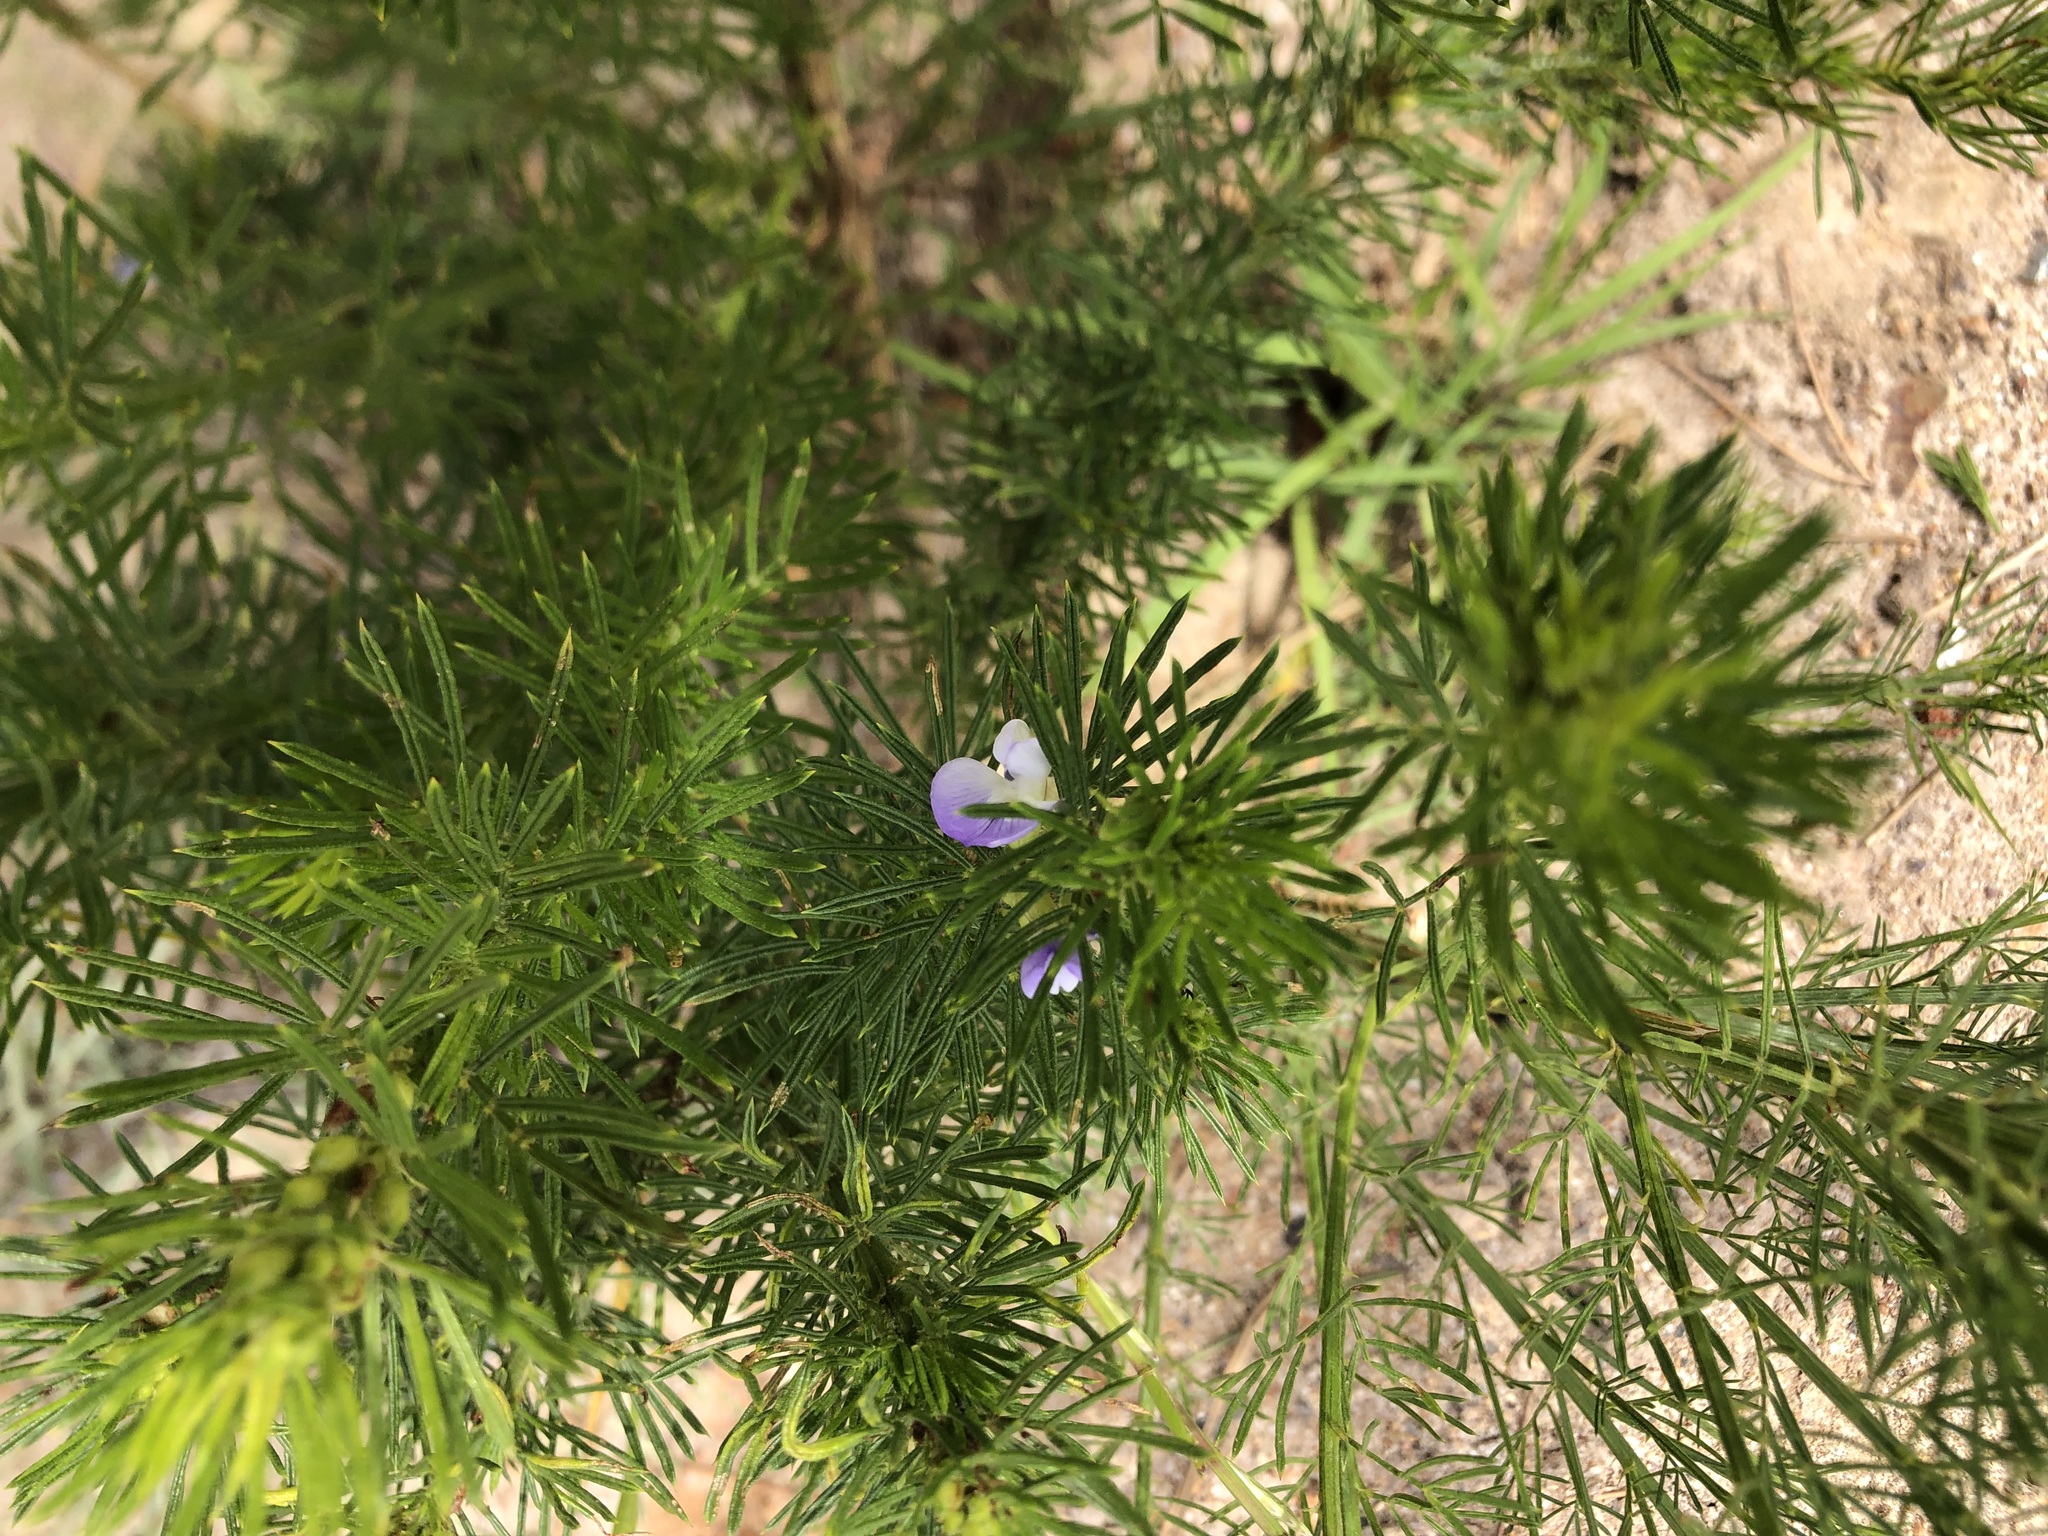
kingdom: Plantae
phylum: Tracheophyta
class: Magnoliopsida
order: Fabales
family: Fabaceae
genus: Psoralea
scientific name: Psoralea pinnata
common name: African scurfpea
